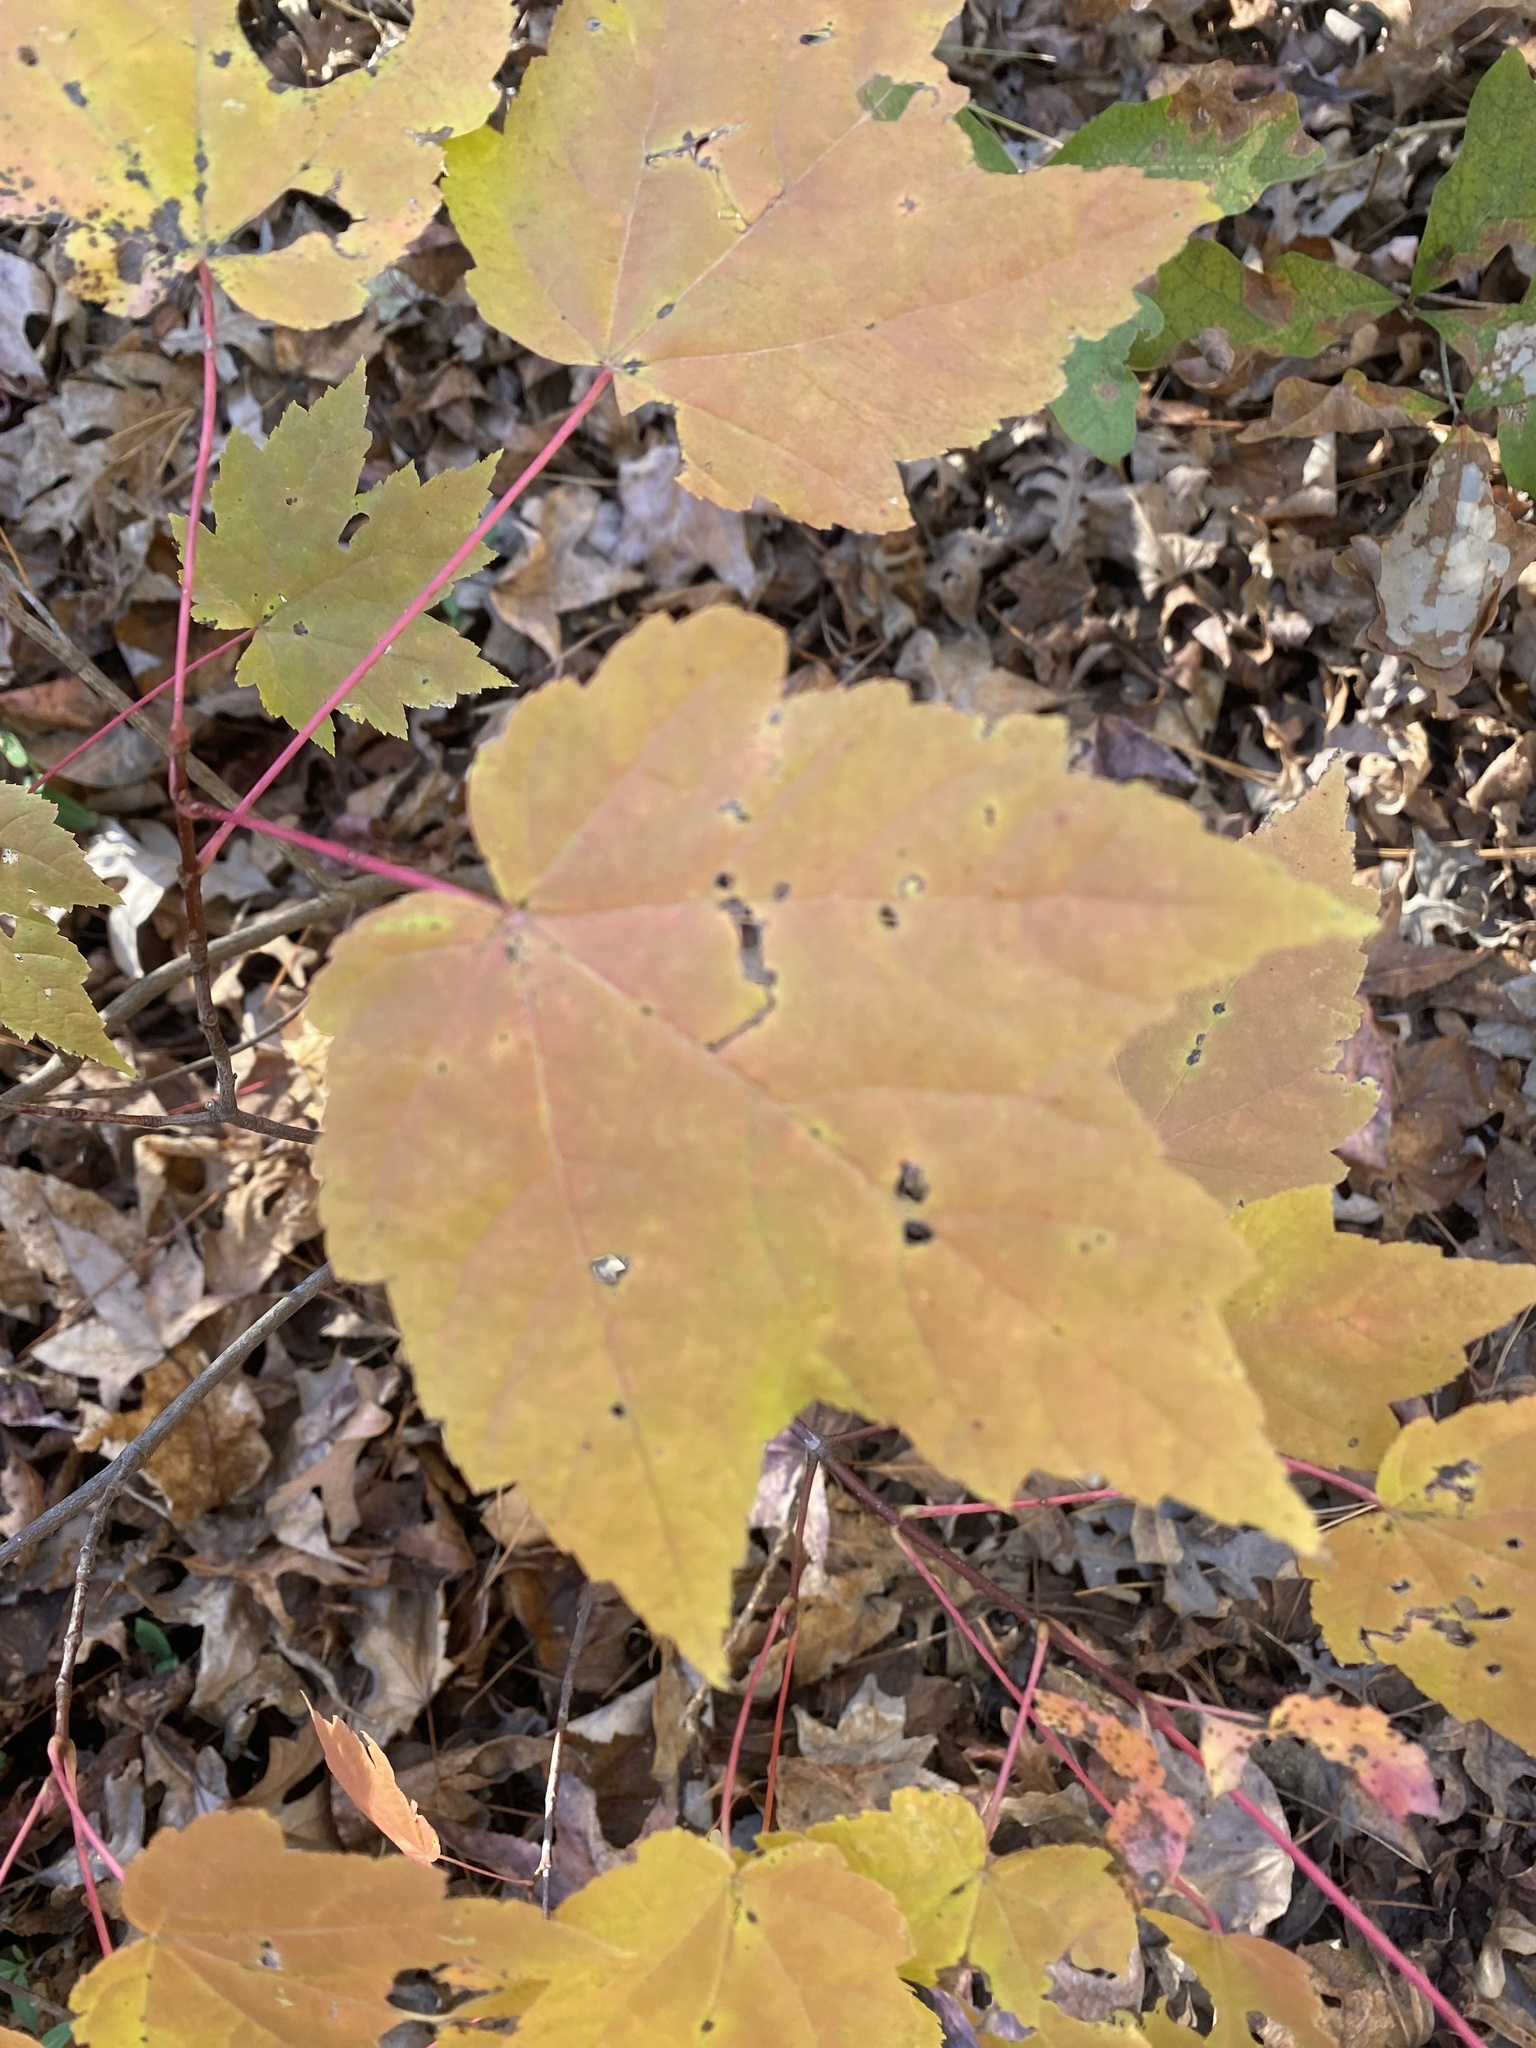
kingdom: Plantae
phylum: Tracheophyta
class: Magnoliopsida
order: Sapindales
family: Sapindaceae
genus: Acer
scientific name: Acer rubrum
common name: Red maple
